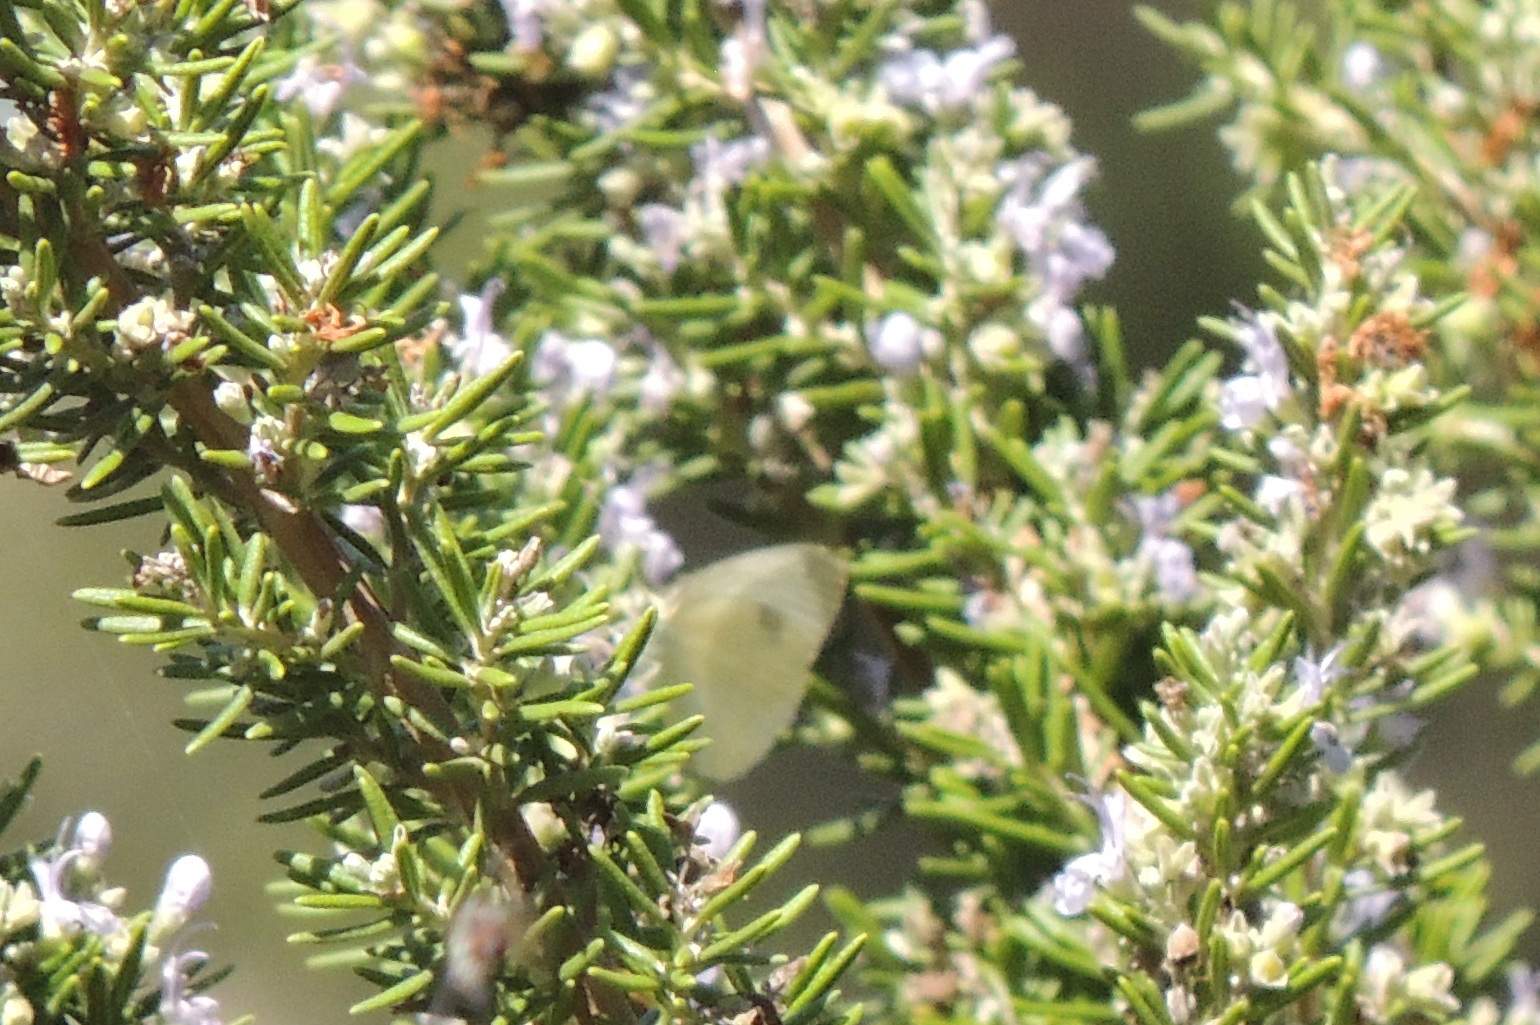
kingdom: Animalia
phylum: Arthropoda
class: Insecta
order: Lepidoptera
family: Pieridae
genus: Pieris
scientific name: Pieris rapae
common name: Small white
